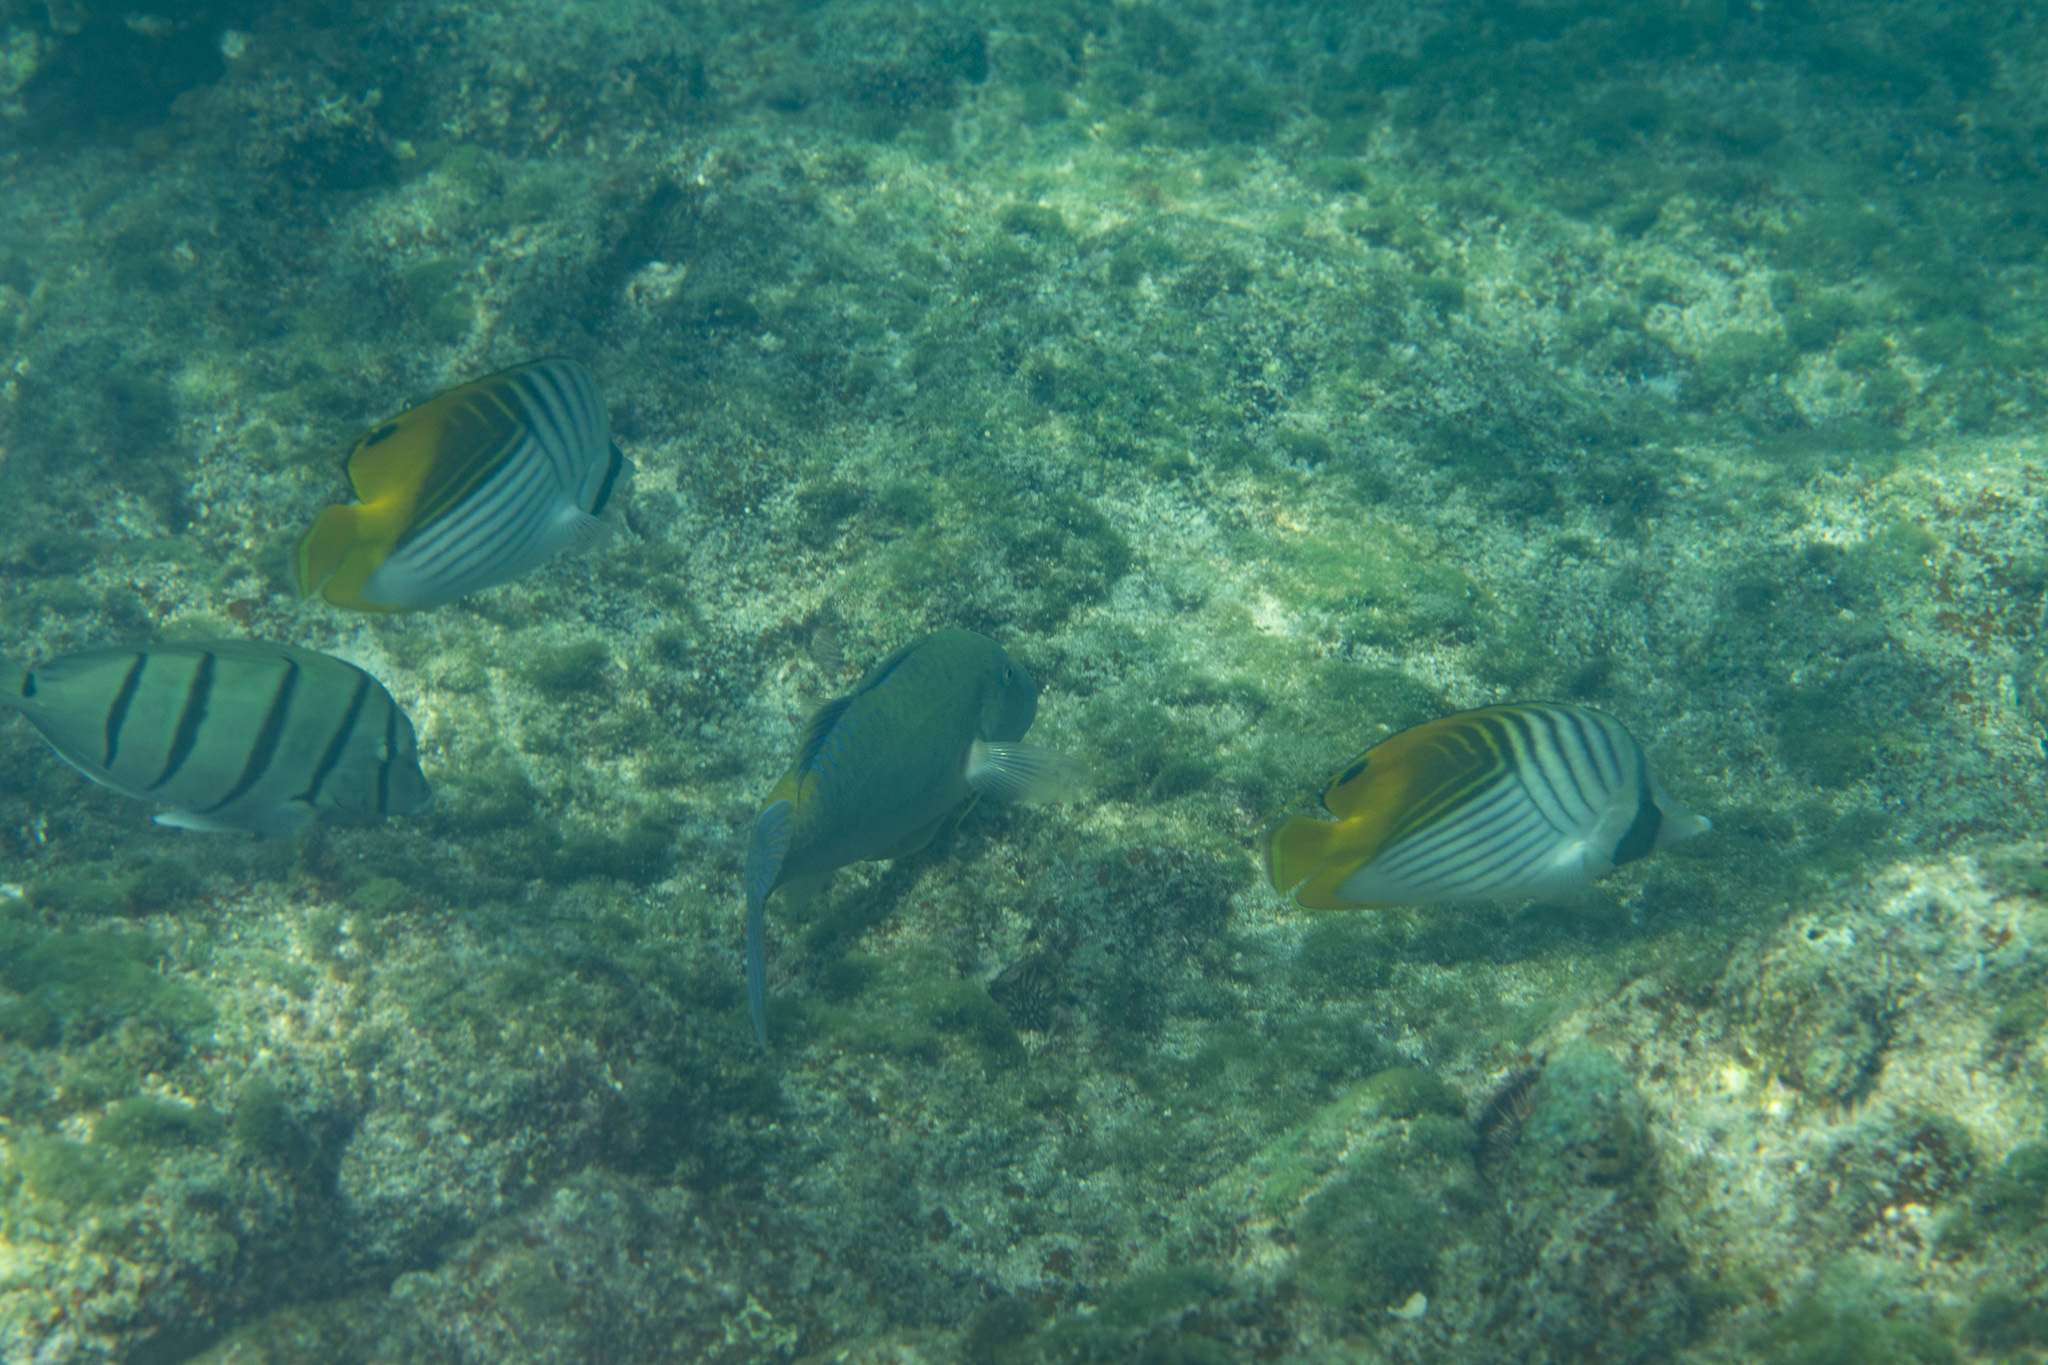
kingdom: Animalia
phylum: Chordata
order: Perciformes
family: Chaetodontidae
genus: Chaetodon
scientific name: Chaetodon auriga
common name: Threadfin butterflyfish
